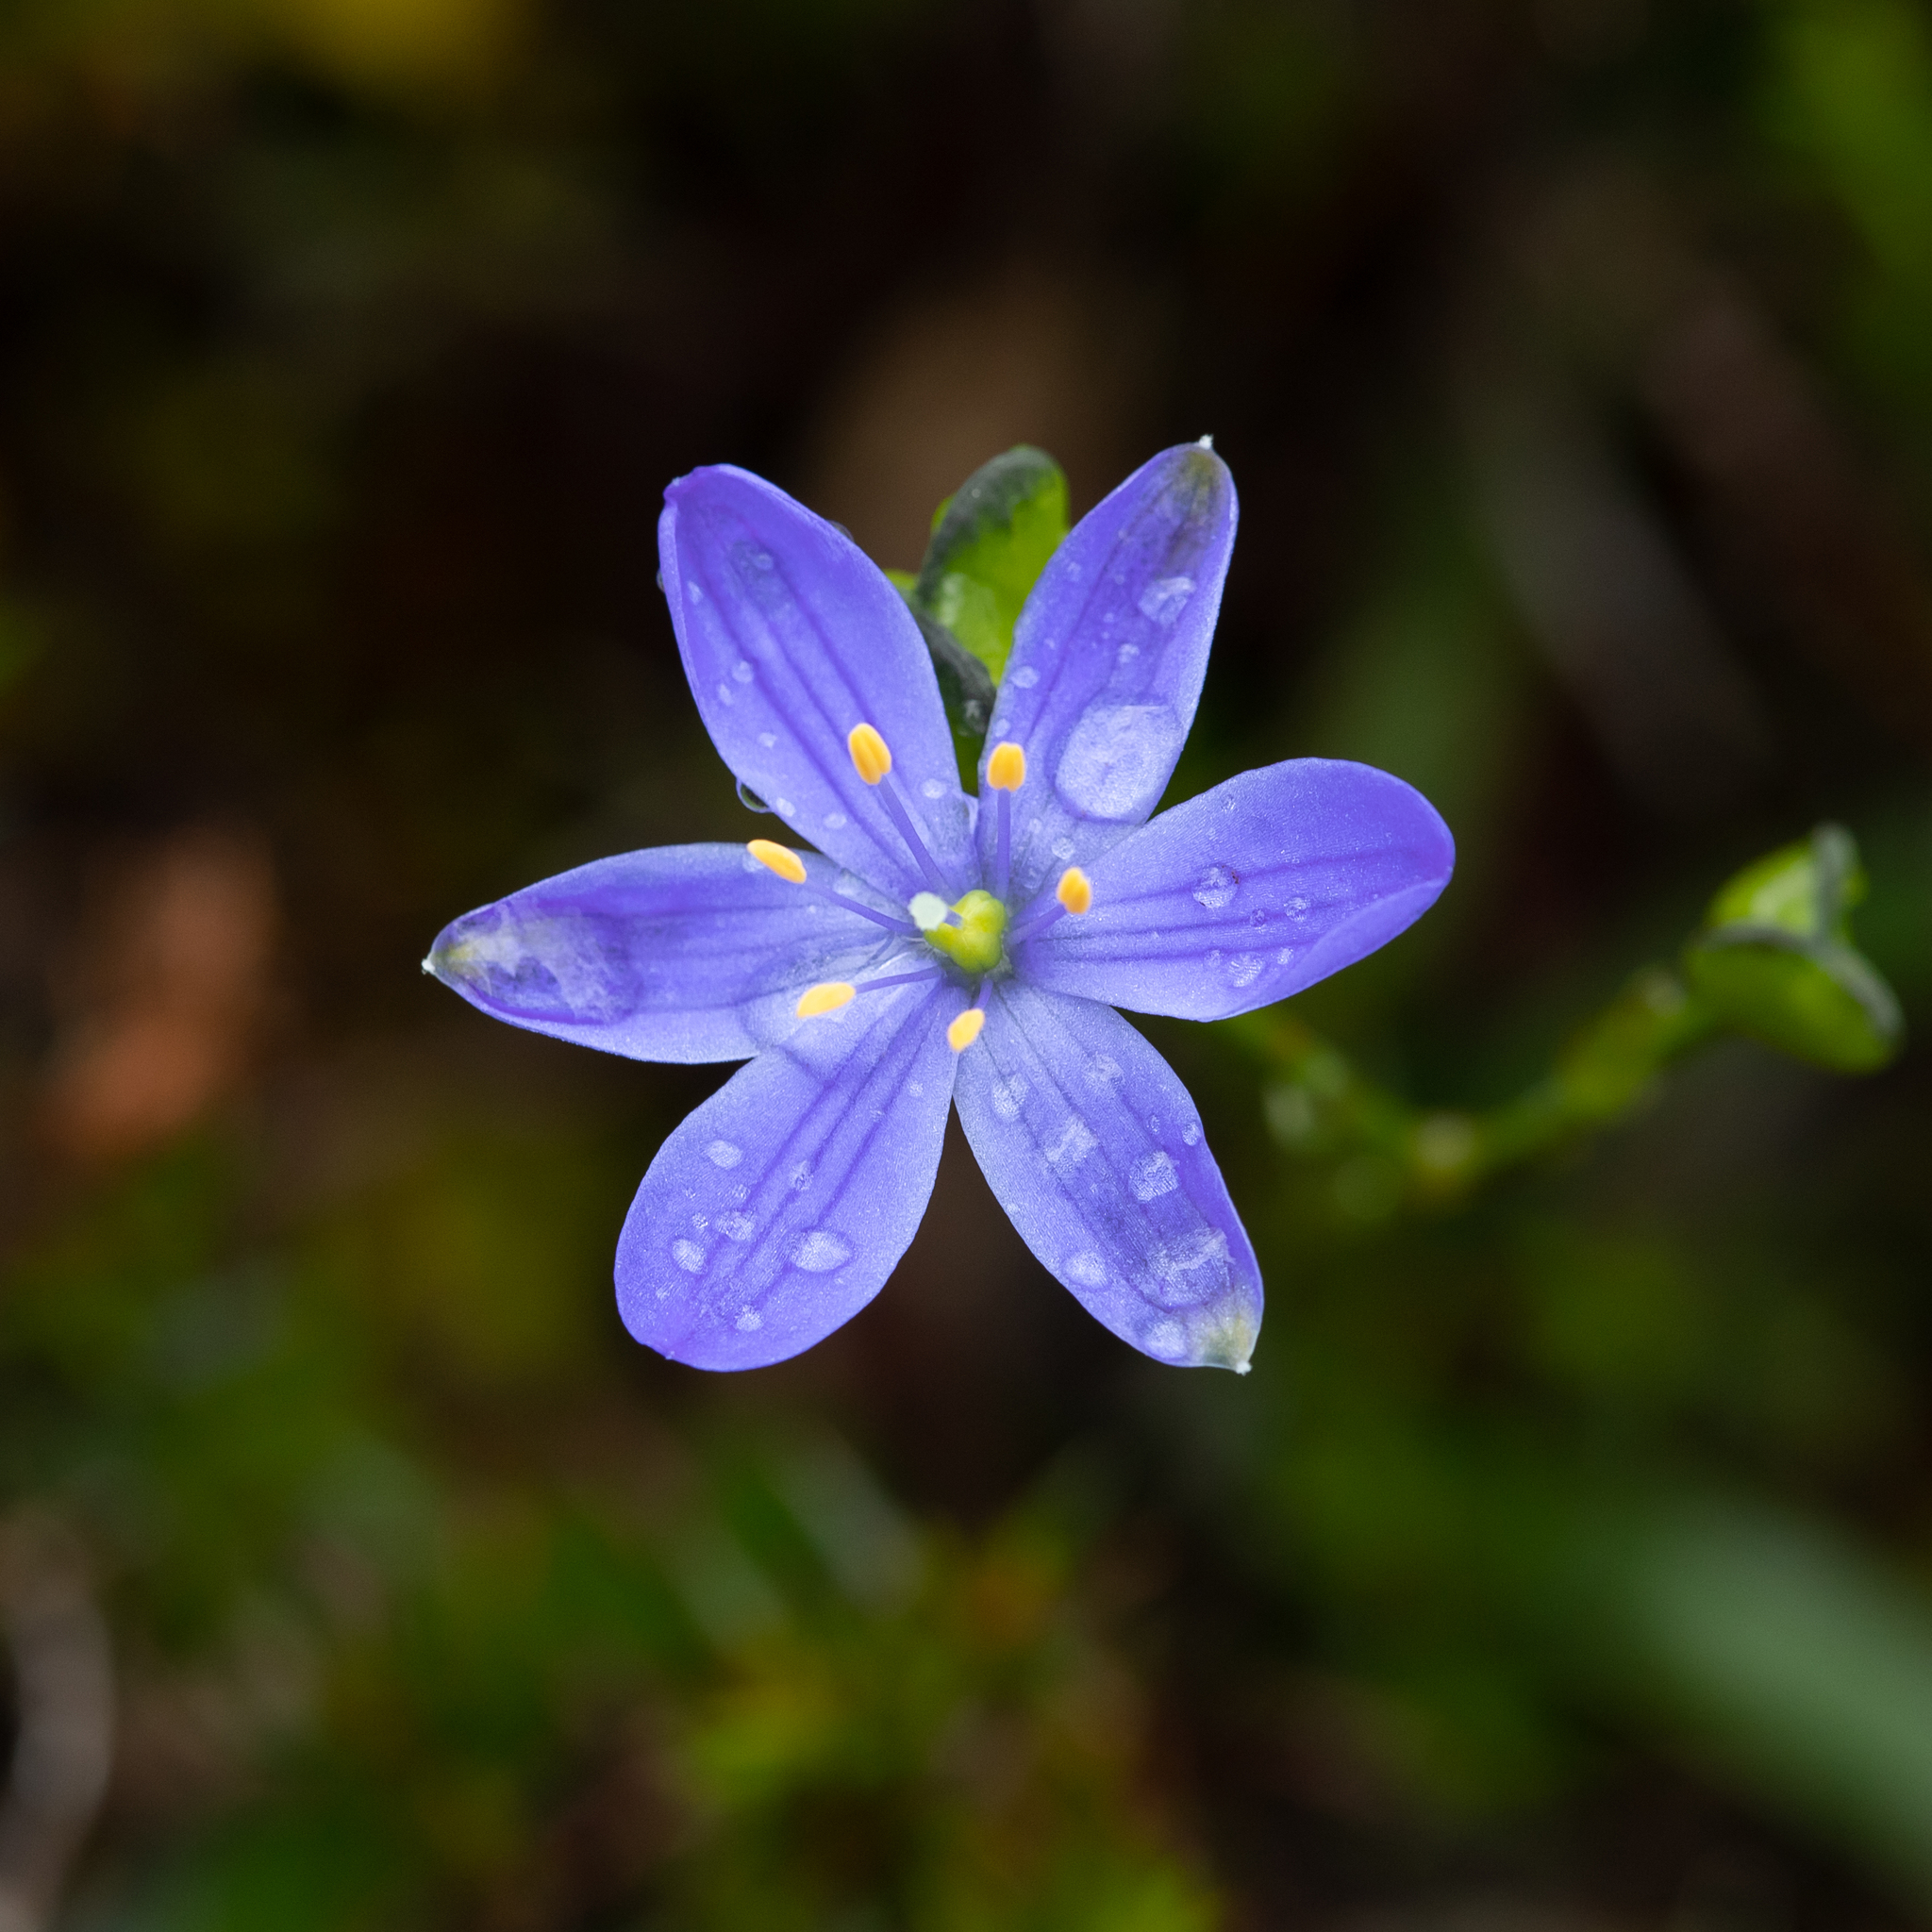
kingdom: Plantae
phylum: Tracheophyta
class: Liliopsida
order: Asparagales
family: Asphodelaceae
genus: Chamaescilla
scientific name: Chamaescilla corymbosa
